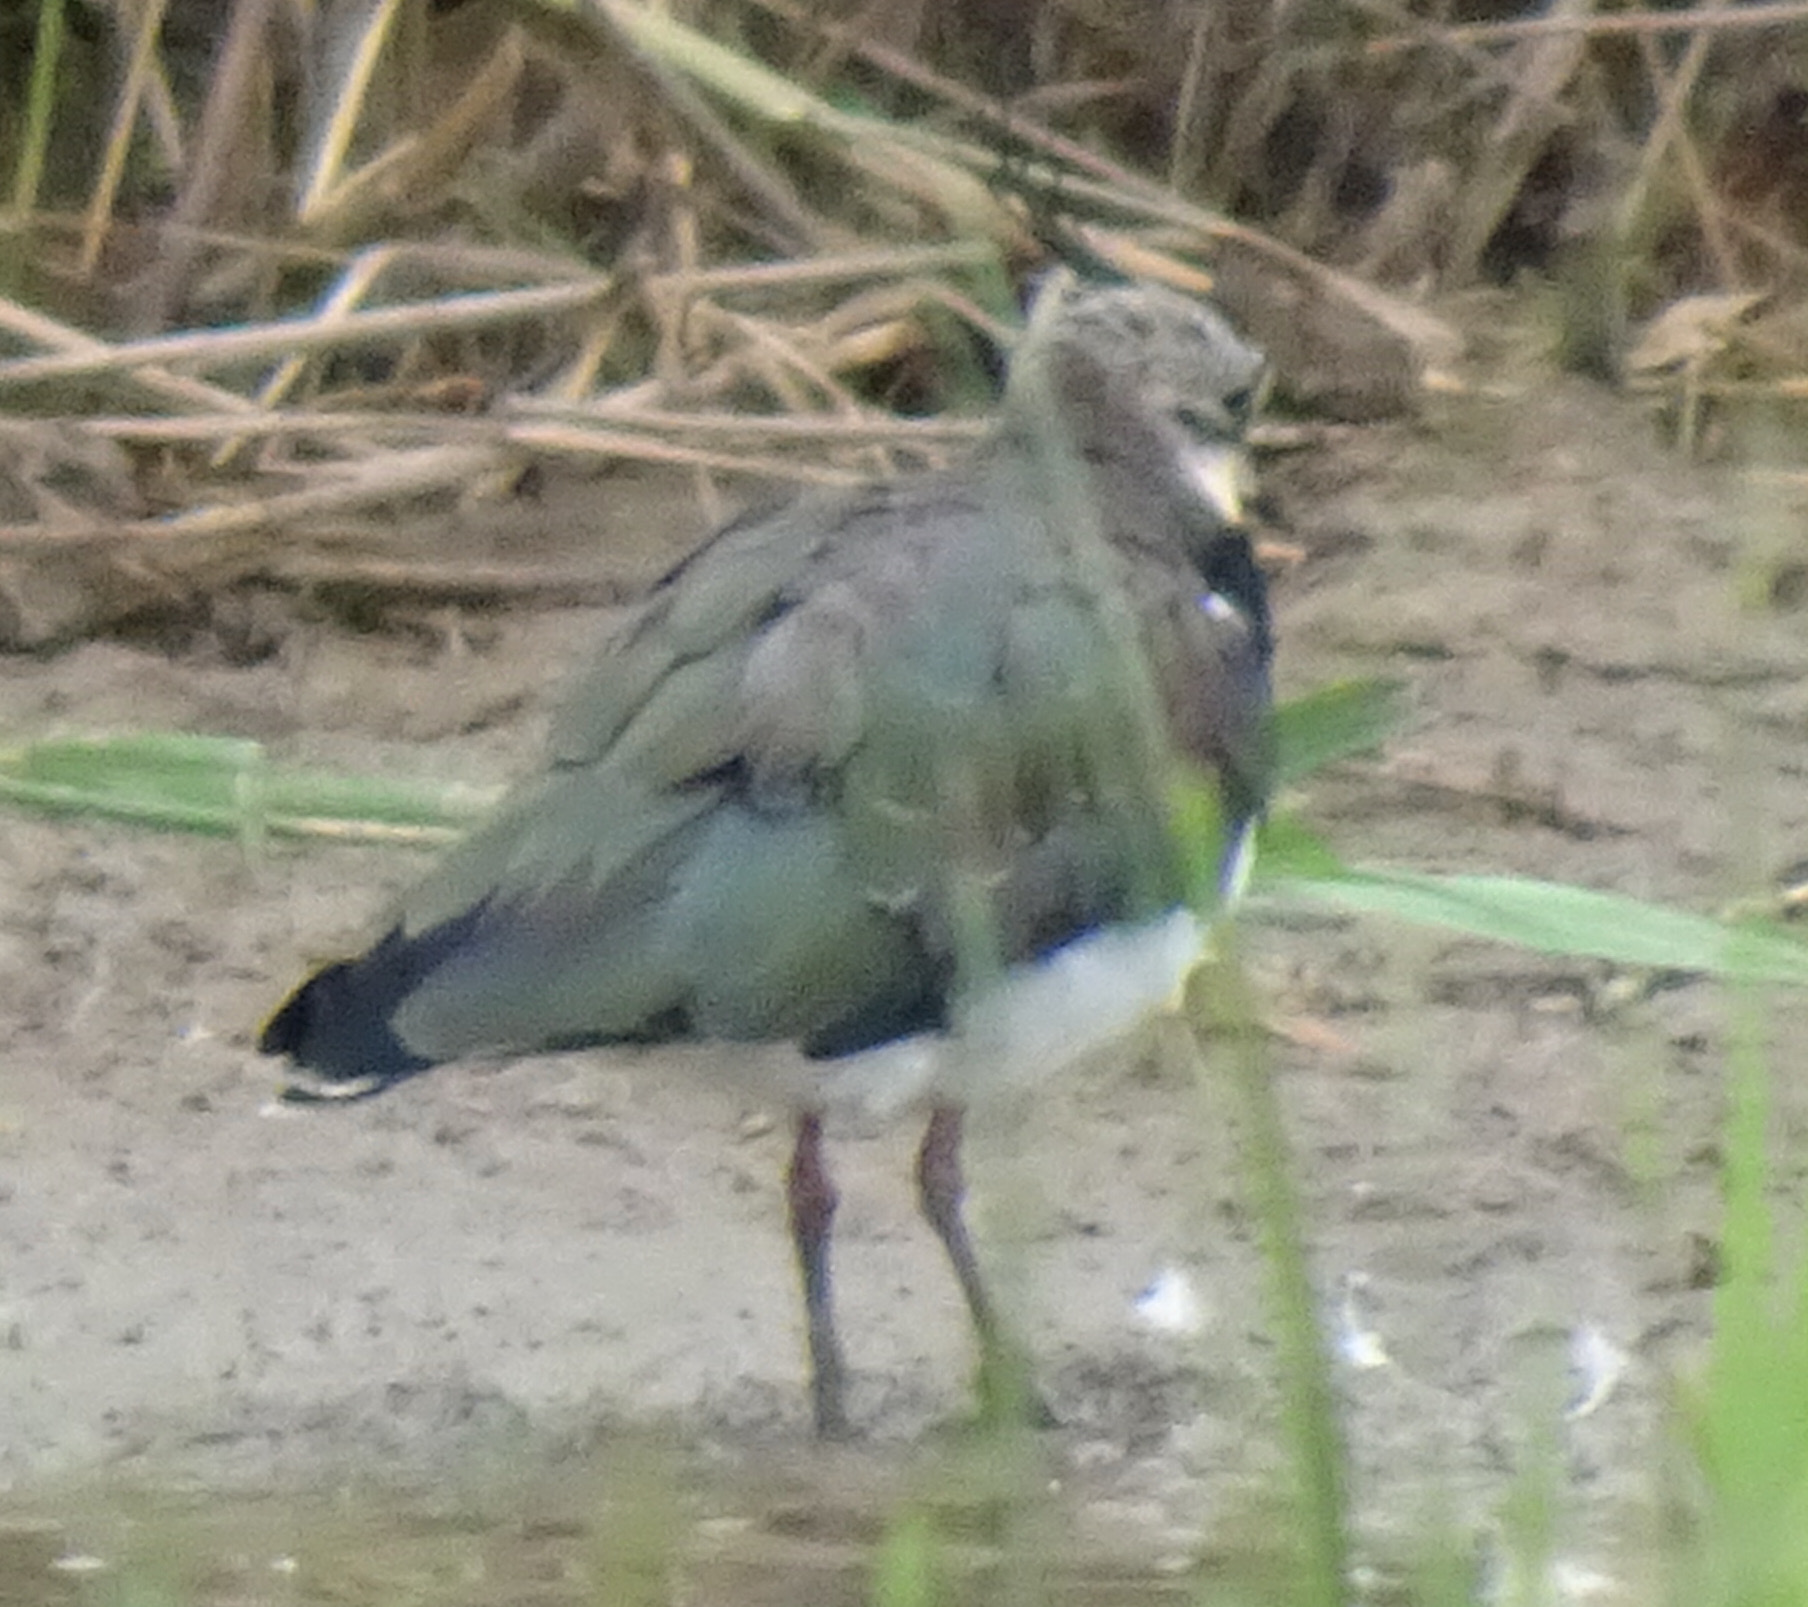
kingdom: Animalia
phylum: Chordata
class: Aves
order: Charadriiformes
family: Charadriidae
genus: Vanellus
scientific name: Vanellus vanellus
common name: Northern lapwing
